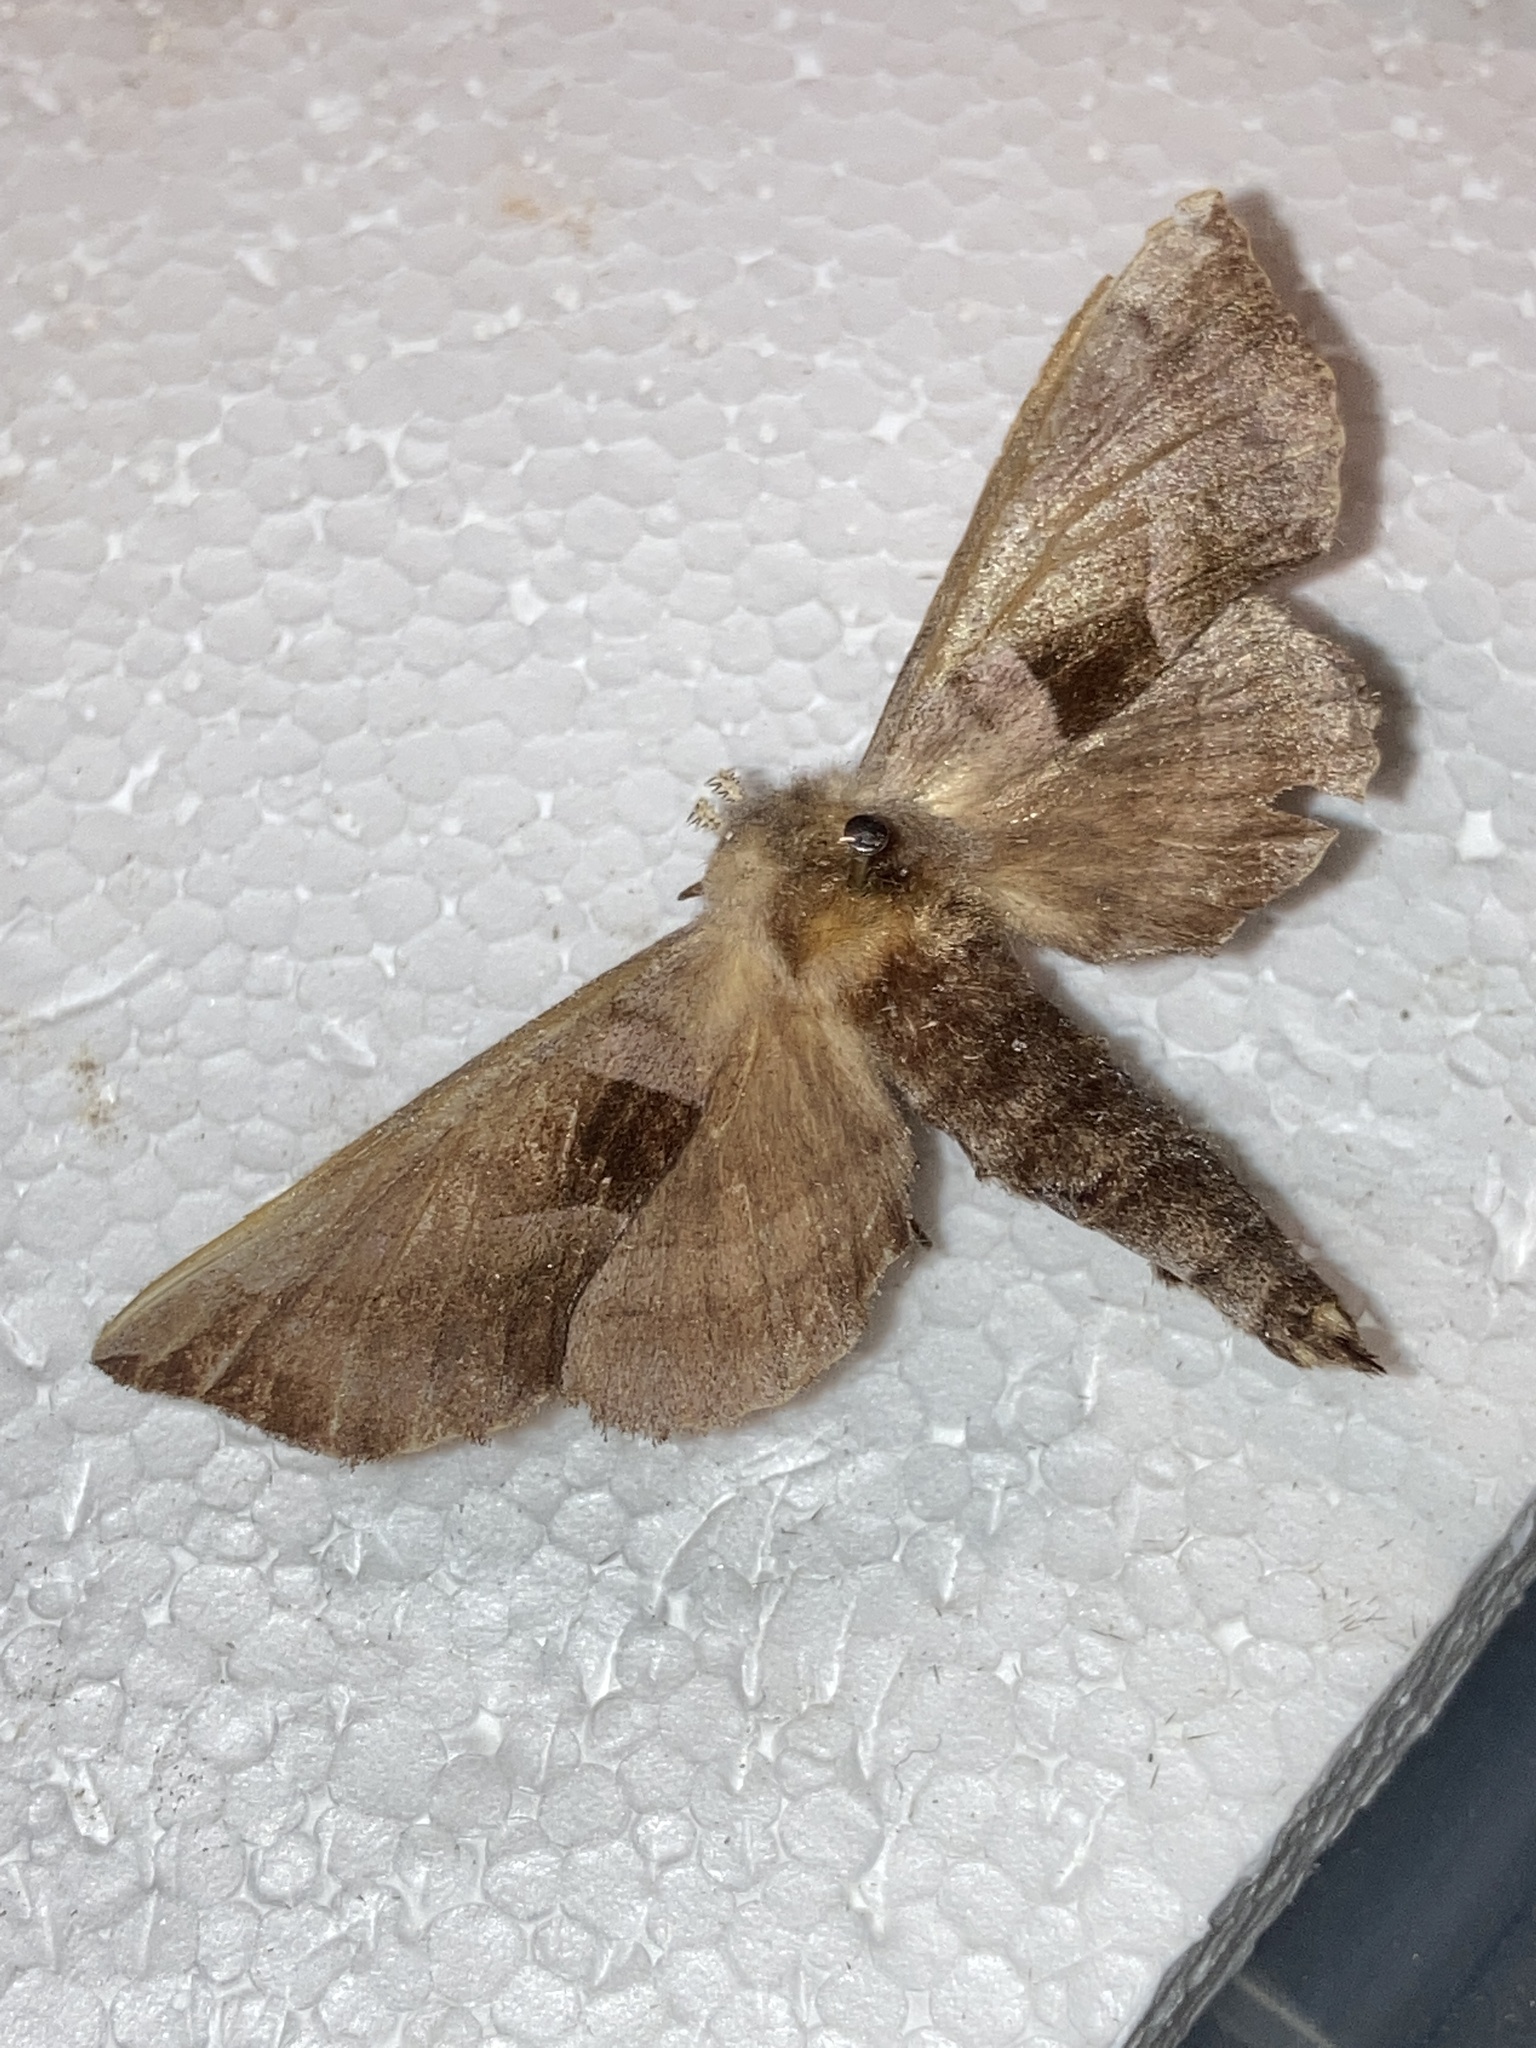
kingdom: Animalia
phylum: Arthropoda
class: Insecta
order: Lepidoptera
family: Sphingidae
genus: Amorpha
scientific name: Amorpha juglandis
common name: Walnut sphinx
